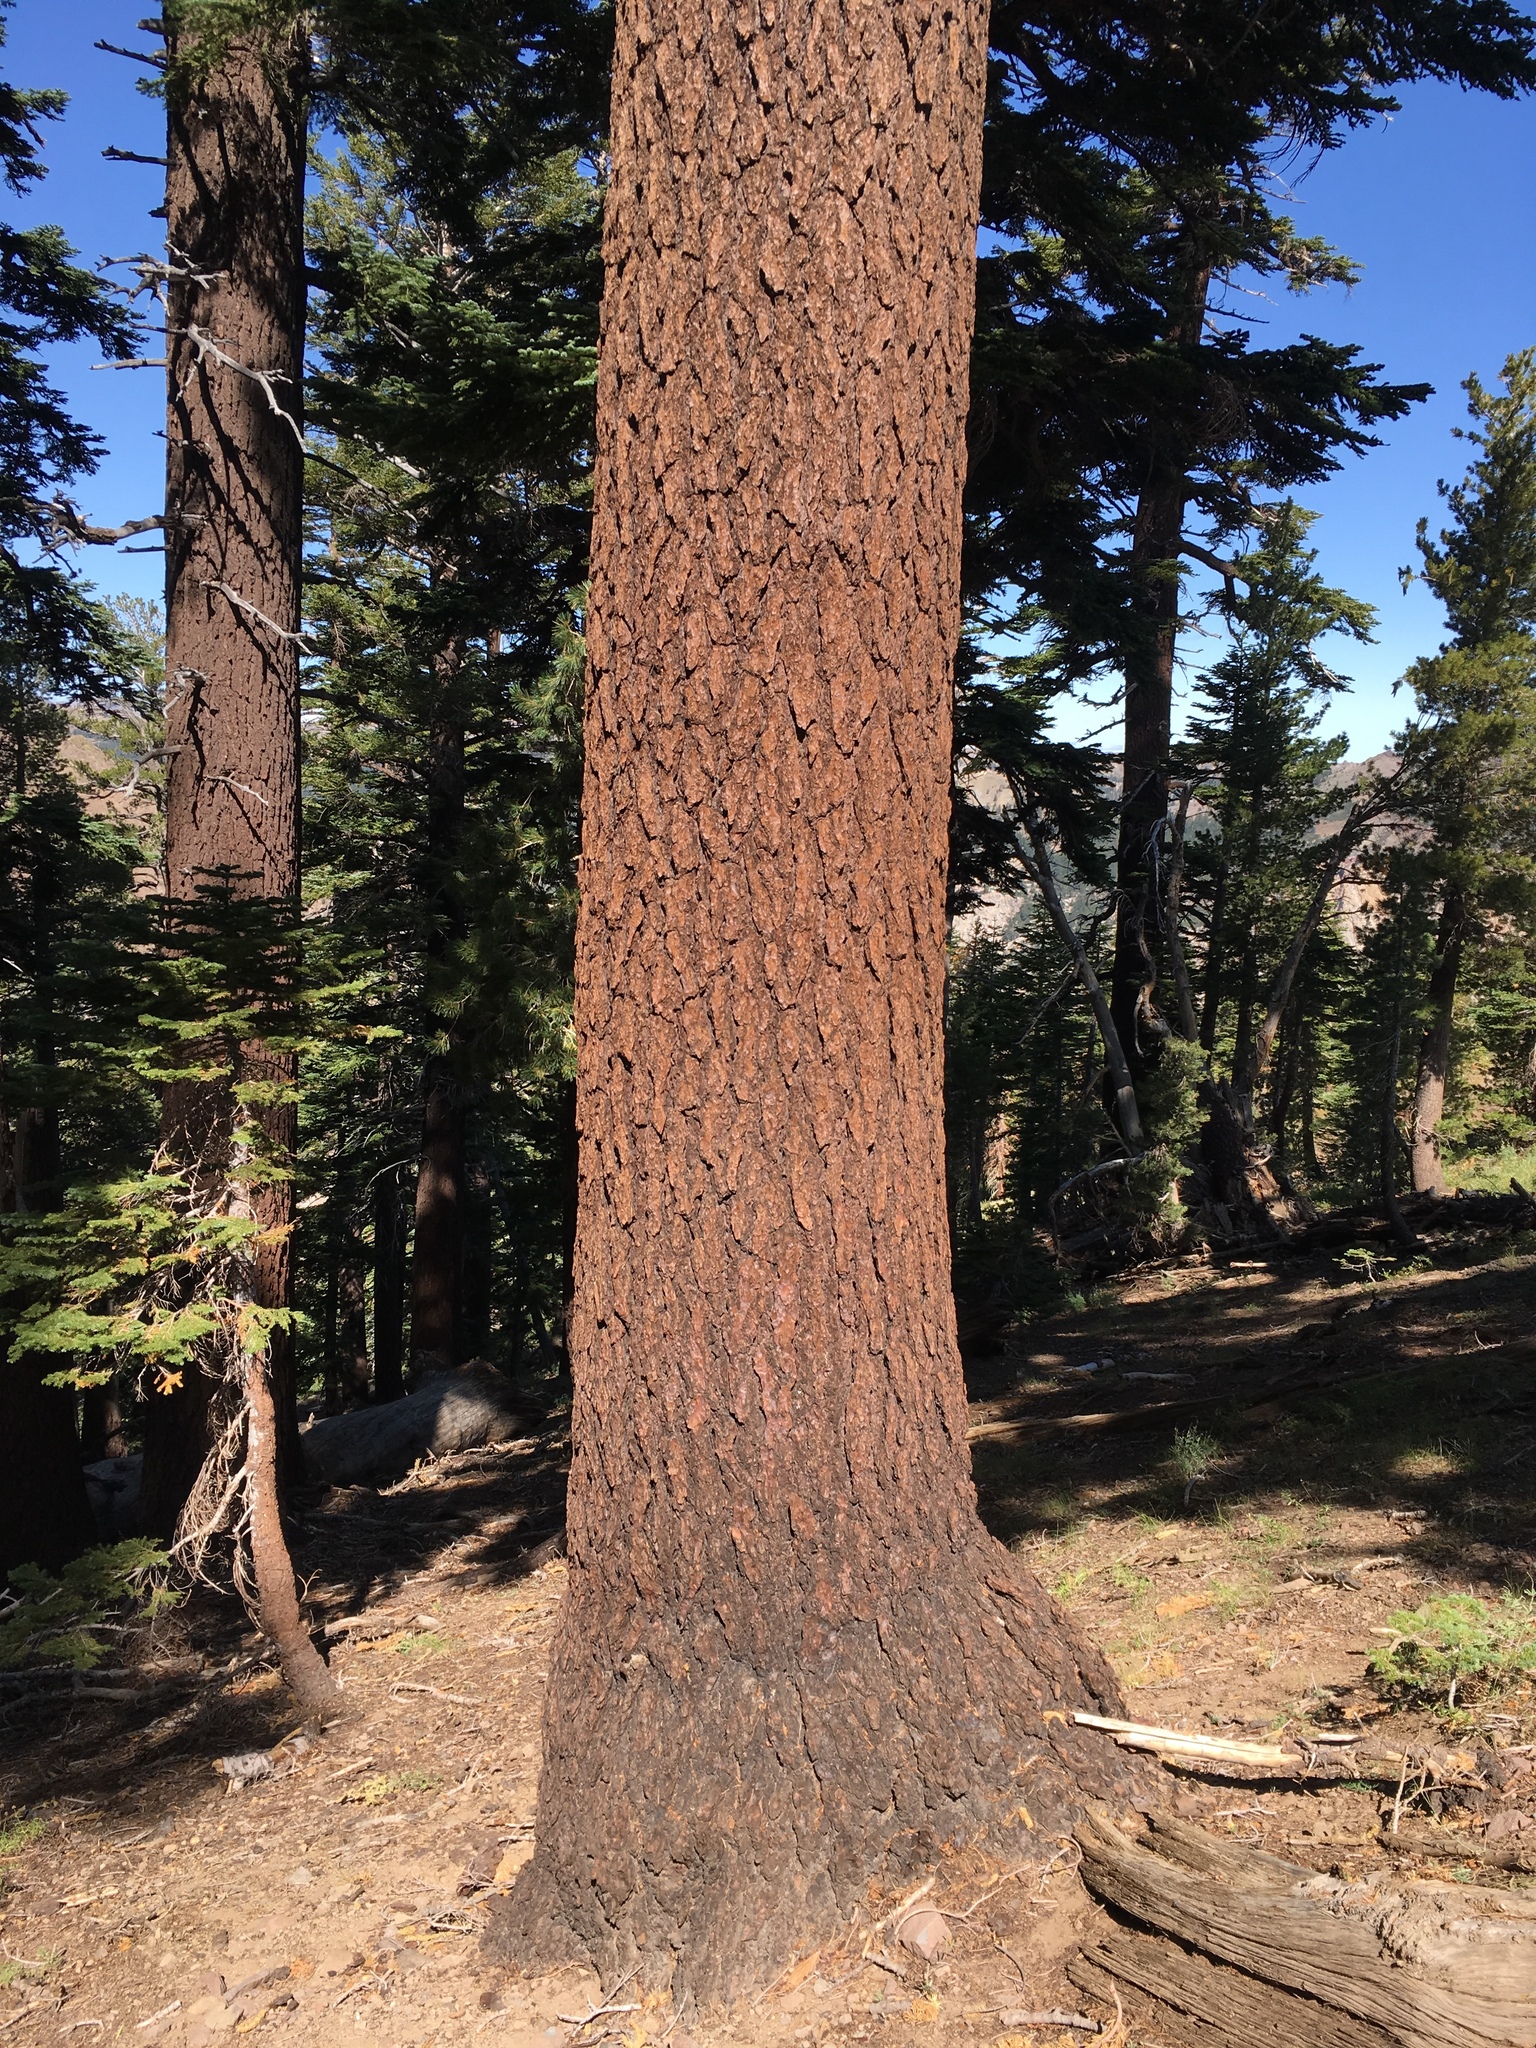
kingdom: Plantae
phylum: Tracheophyta
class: Pinopsida
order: Pinales
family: Pinaceae
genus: Abies
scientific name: Abies magnifica bis
